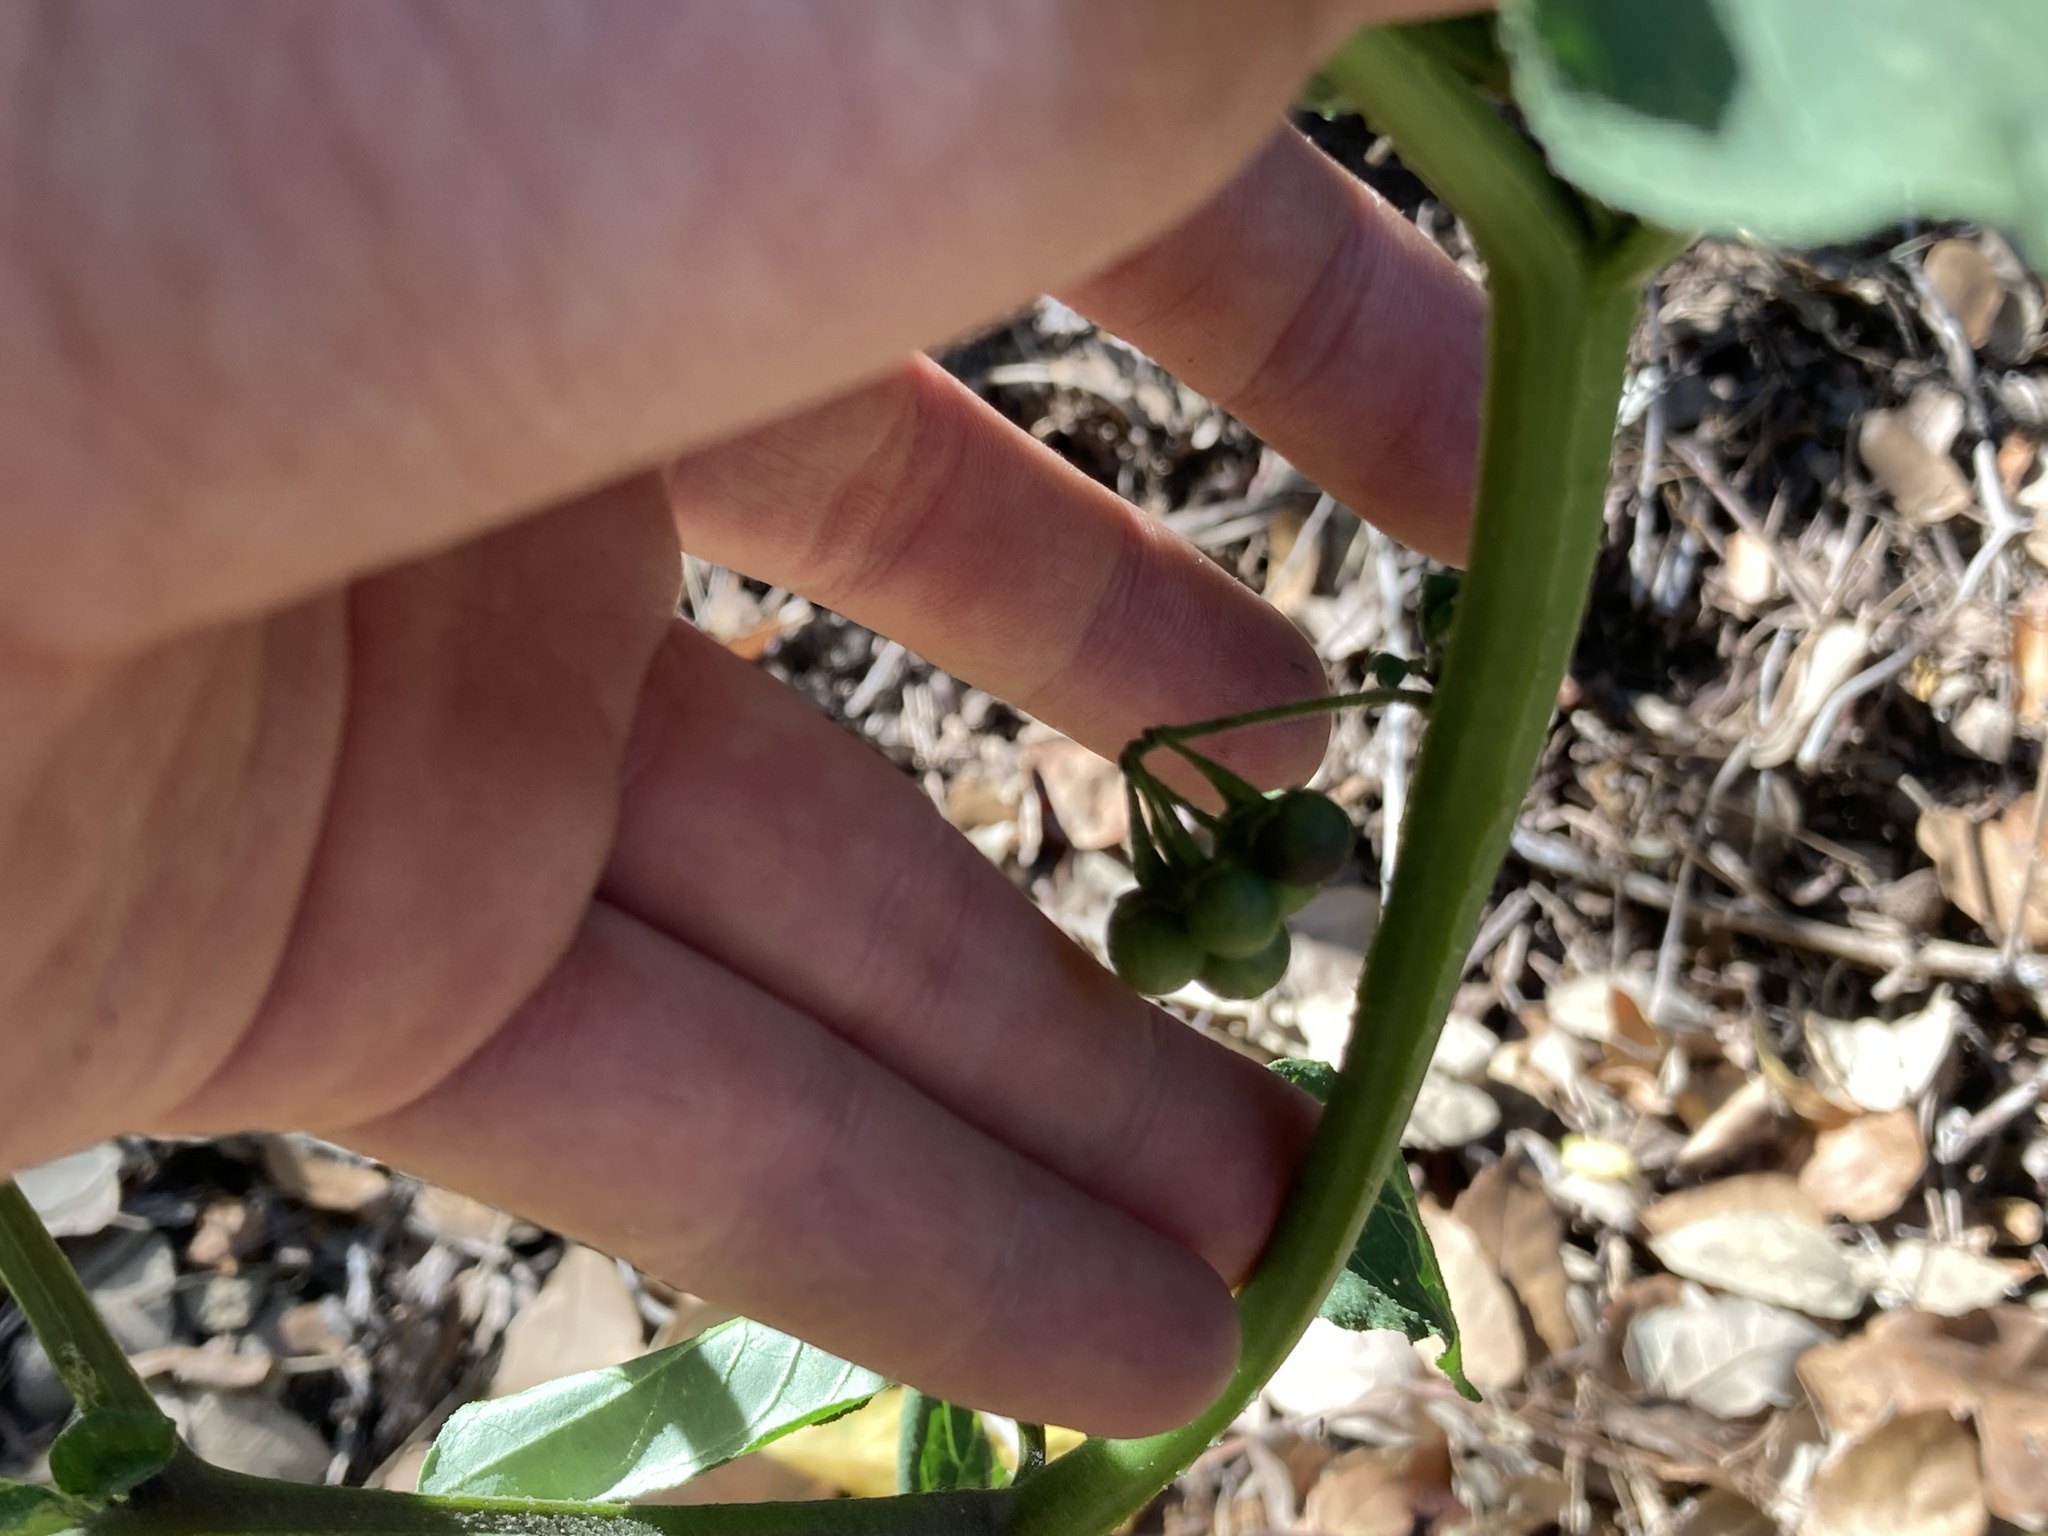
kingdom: Plantae
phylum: Tracheophyta
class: Magnoliopsida
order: Solanales
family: Solanaceae
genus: Solanum
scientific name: Solanum nigrum
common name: Black nightshade
